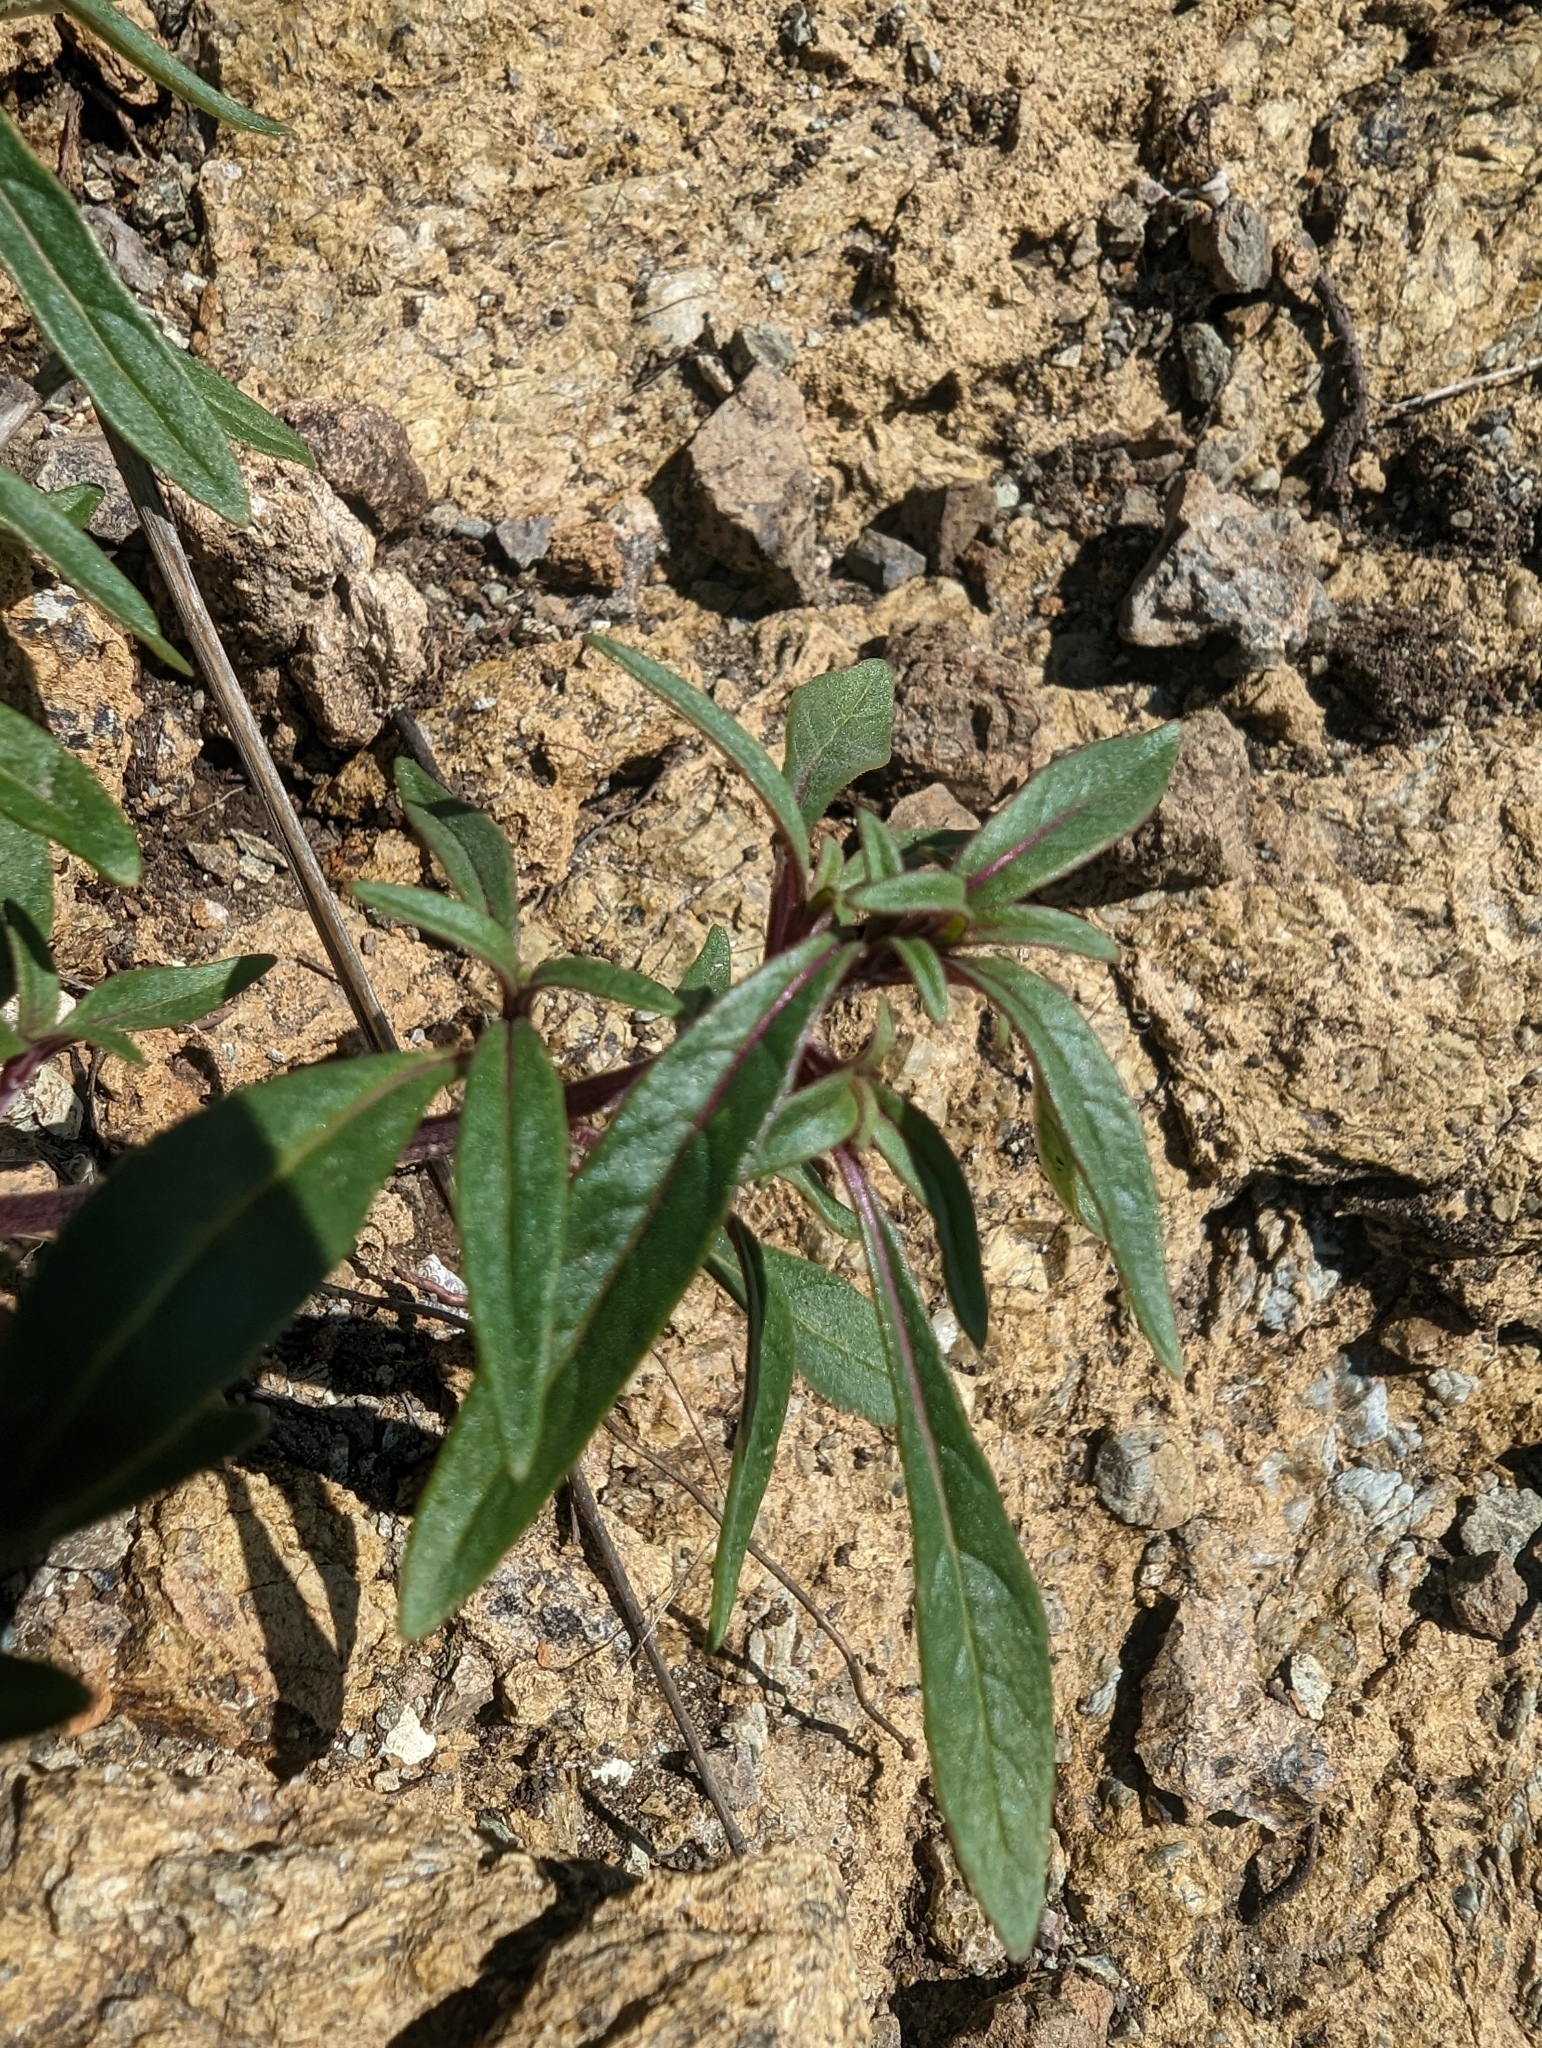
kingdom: Plantae
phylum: Tracheophyta
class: Magnoliopsida
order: Lamiales
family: Lamiaceae
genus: Monardella
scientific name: Monardella douglasii
